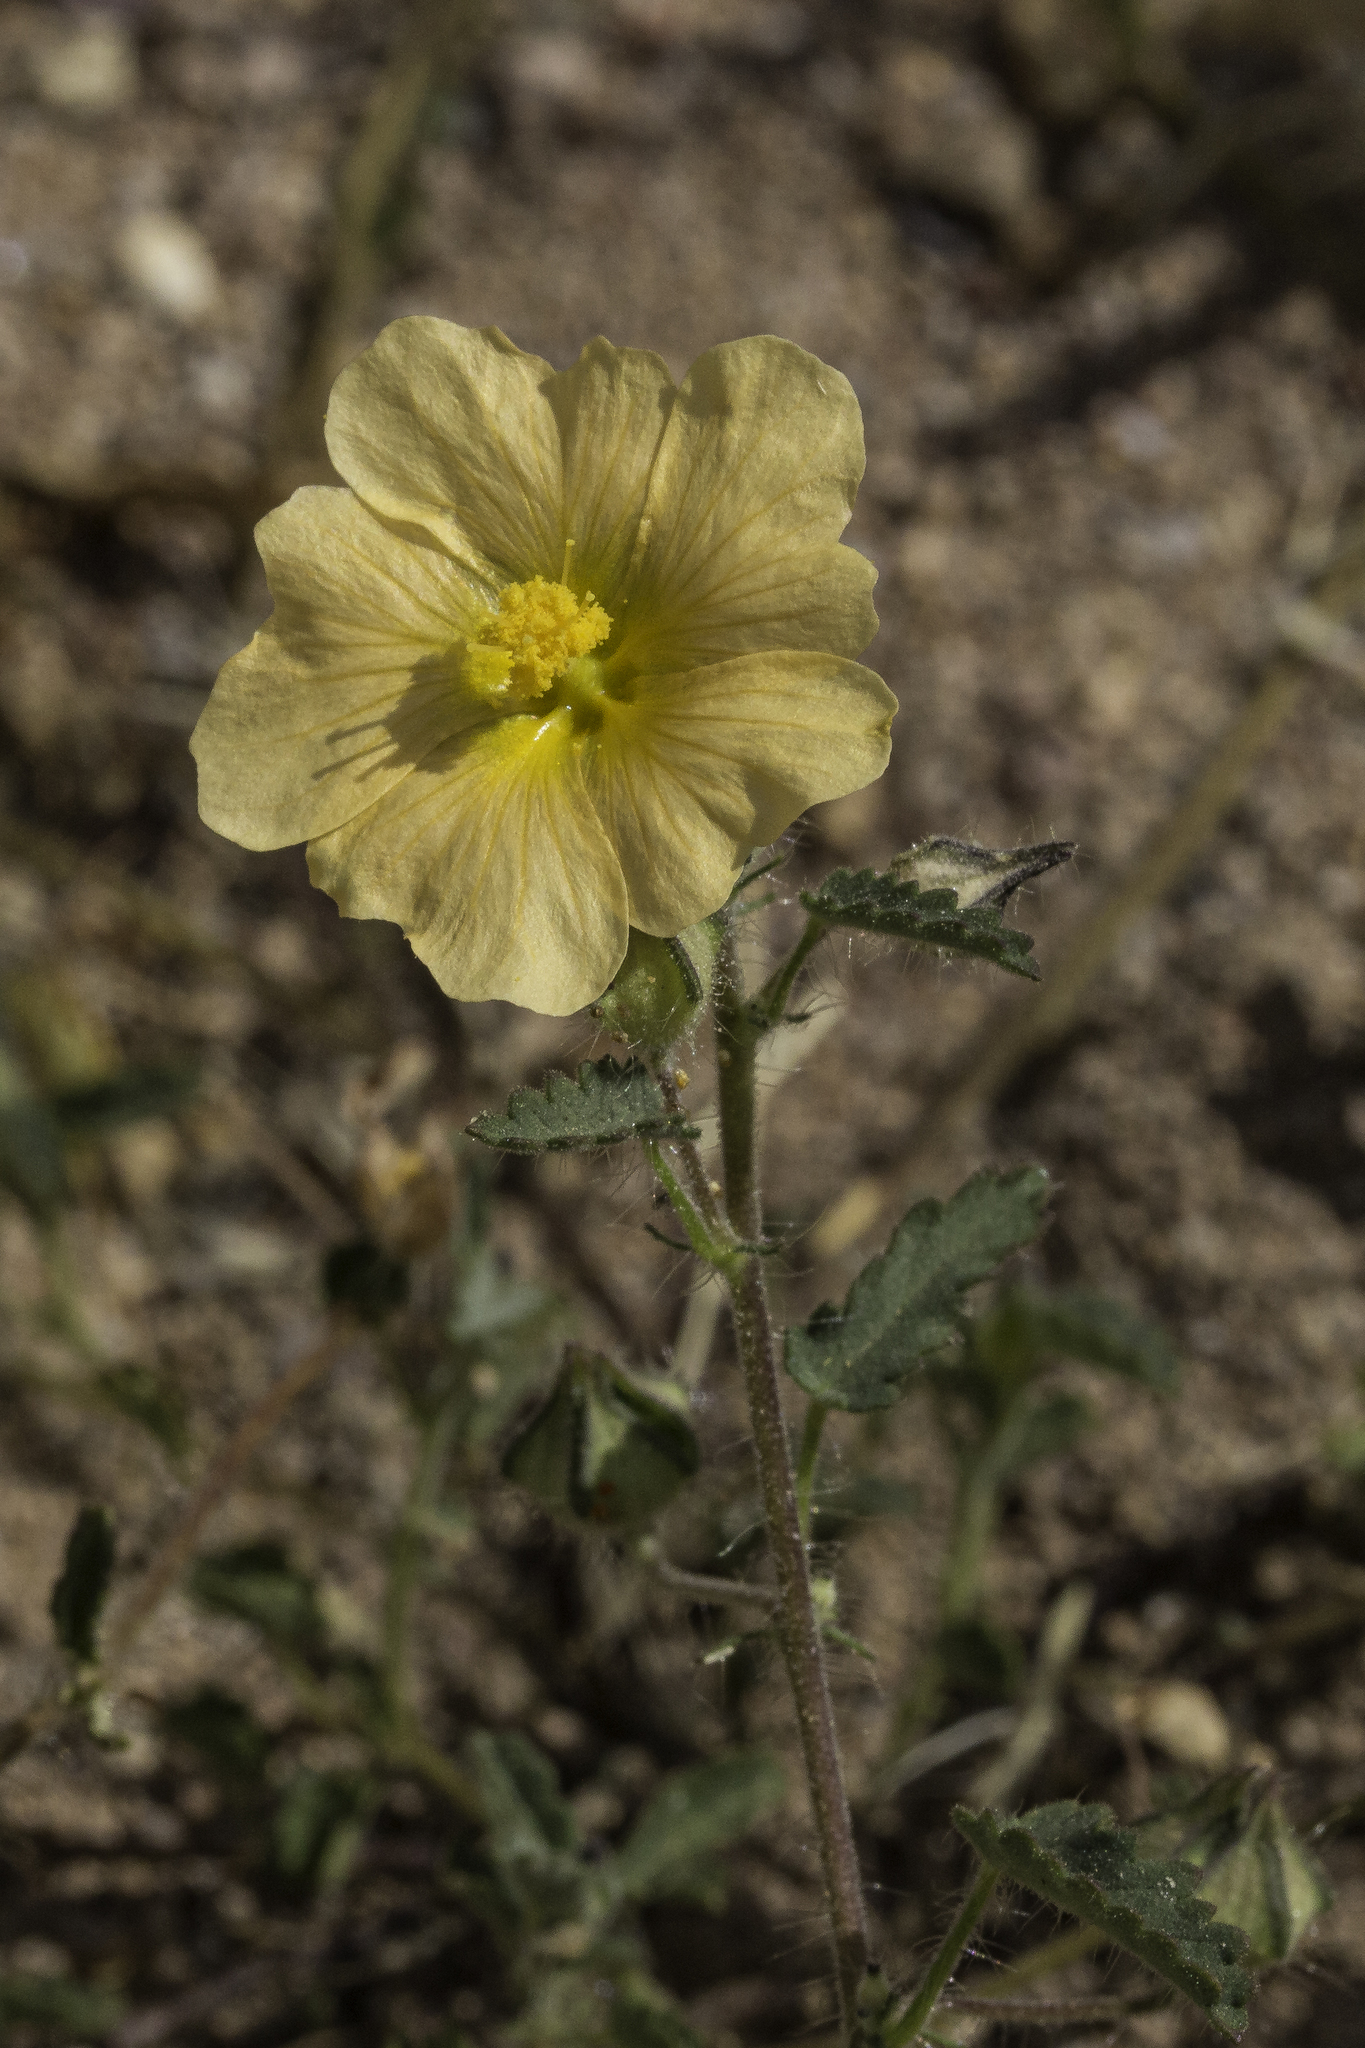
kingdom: Plantae
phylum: Tracheophyta
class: Magnoliopsida
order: Malvales
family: Malvaceae
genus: Sida
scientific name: Sida abutilifolia
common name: Spreading fanpetals
